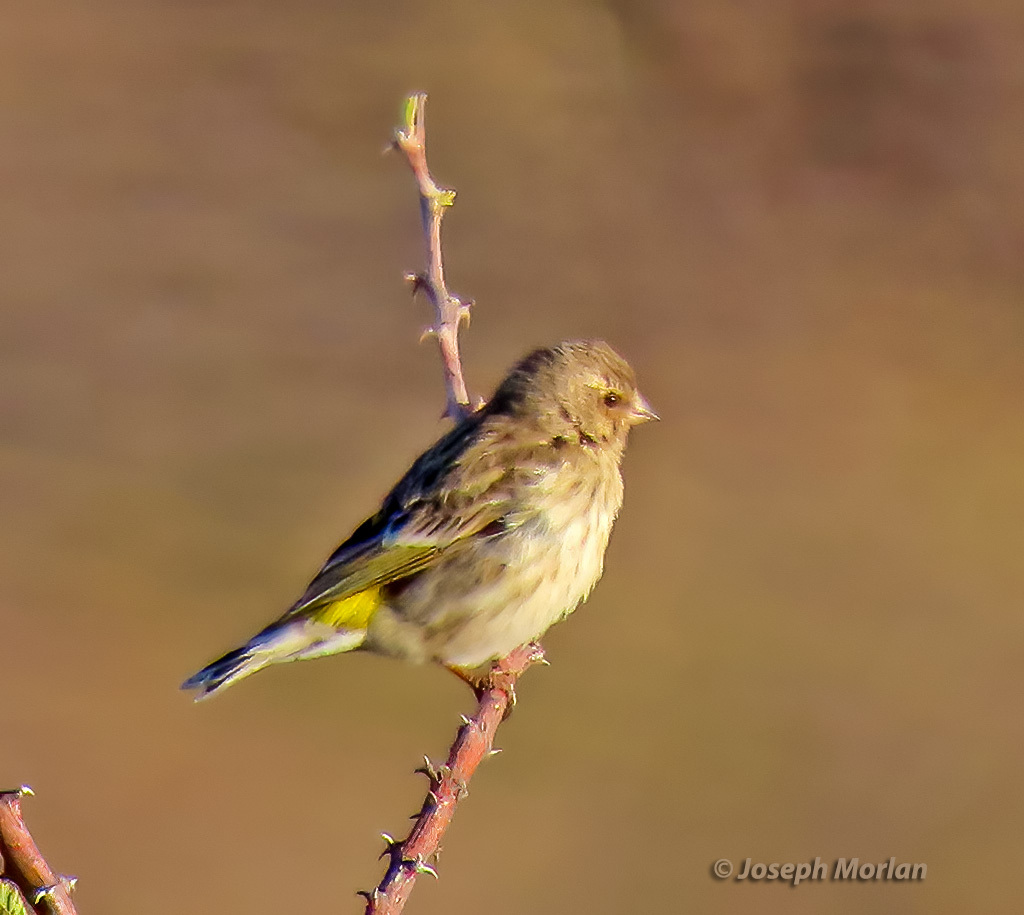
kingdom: Animalia
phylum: Chordata
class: Aves
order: Passeriformes
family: Fringillidae
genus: Crithagra
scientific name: Crithagra atrogularis
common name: Black-throated canary
